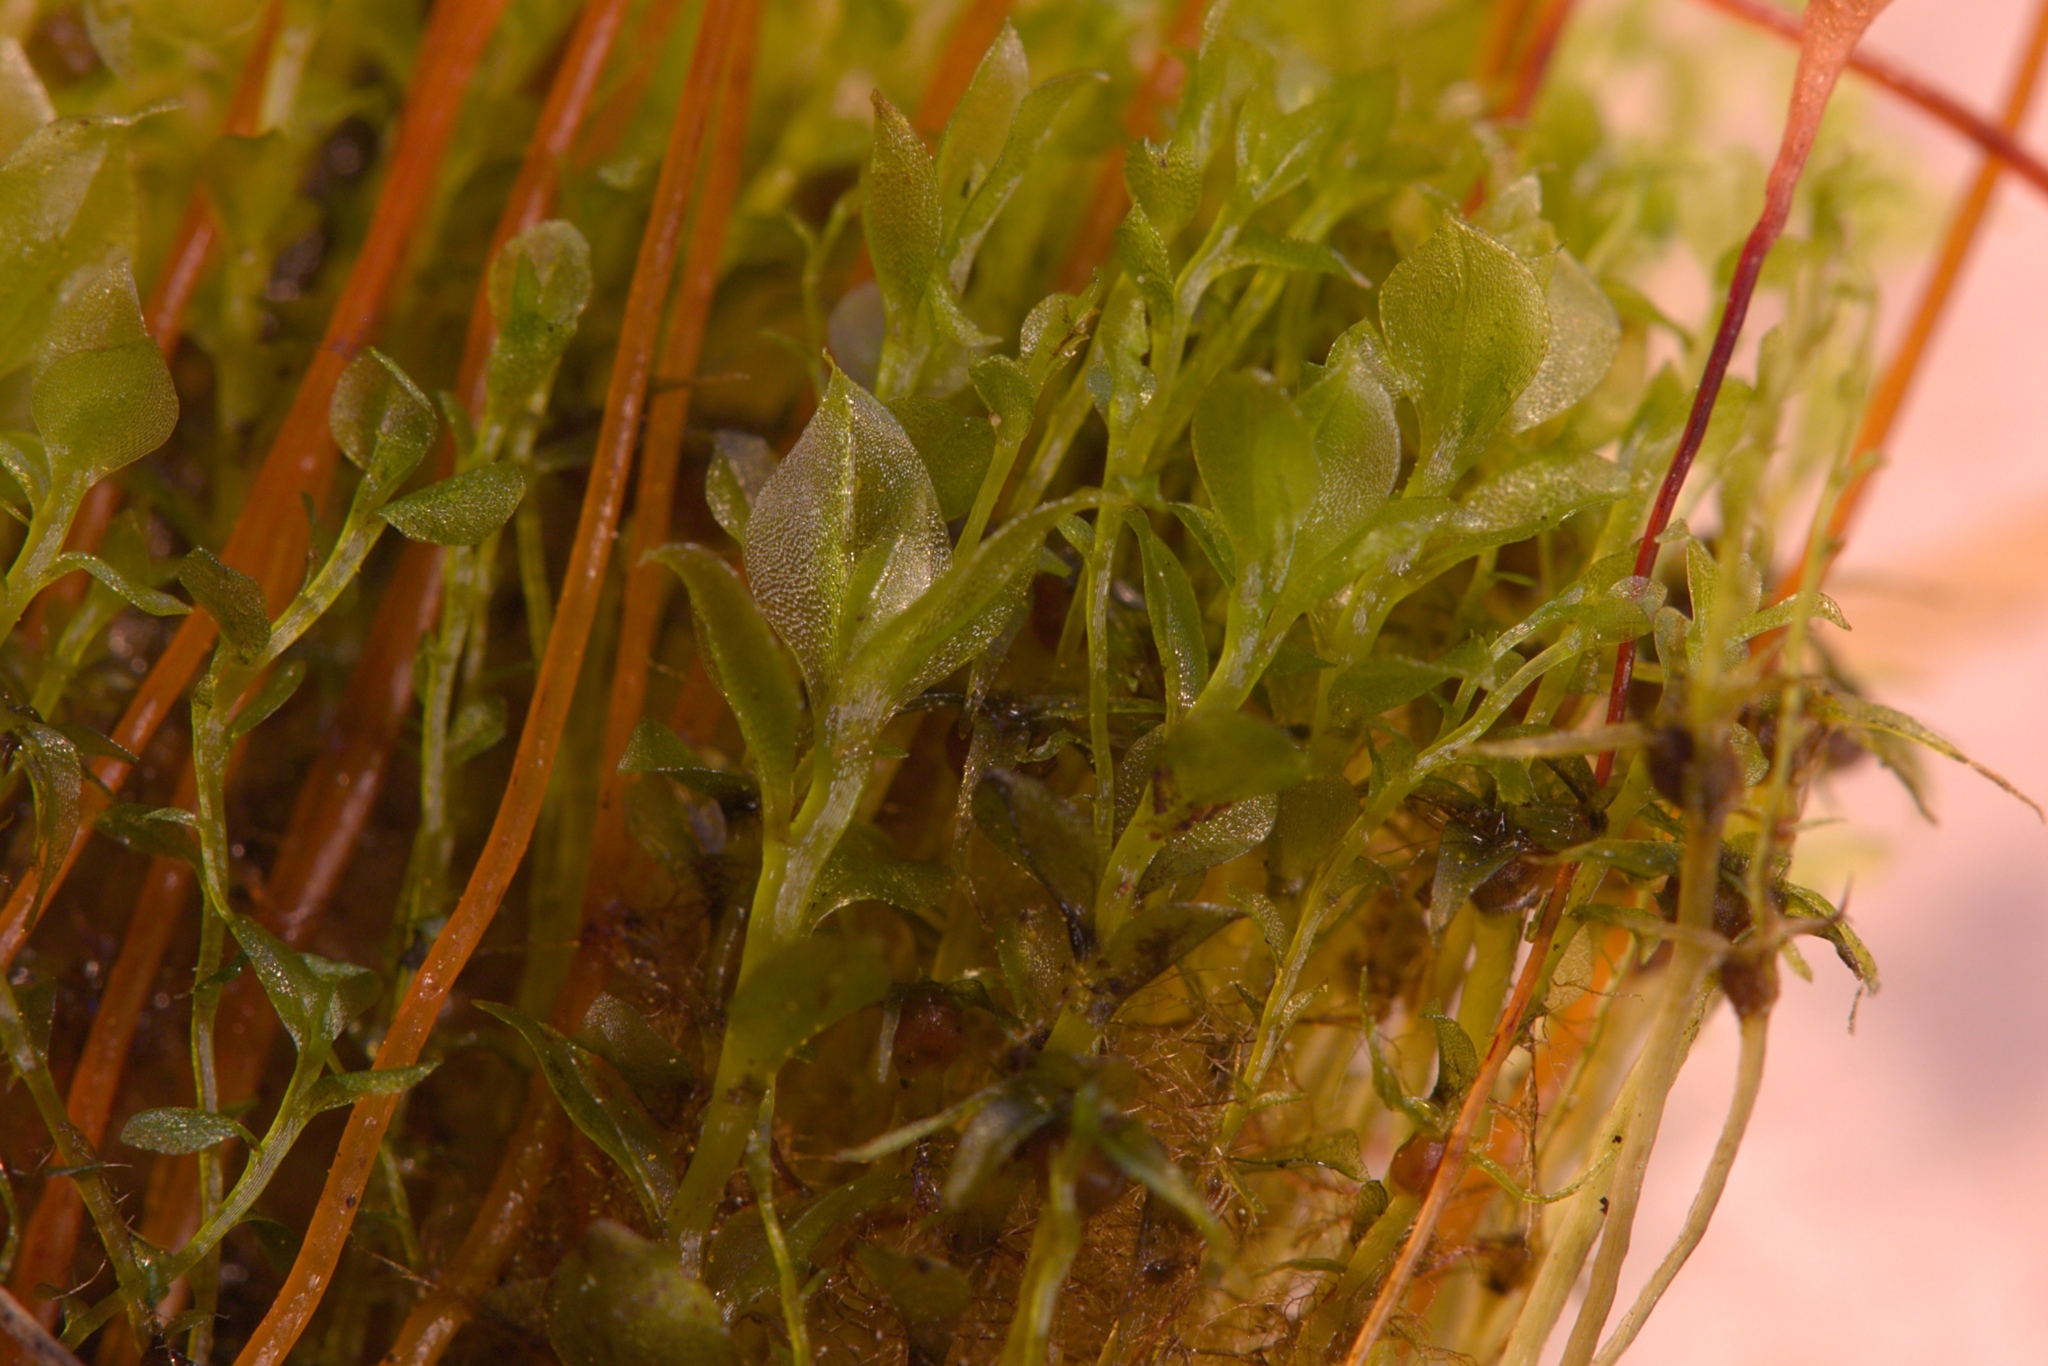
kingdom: Plantae
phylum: Bryophyta
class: Bryopsida
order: Splachnales
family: Splachnaceae
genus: Splachnum
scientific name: Splachnum vasculosum
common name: Rugged dung moss
